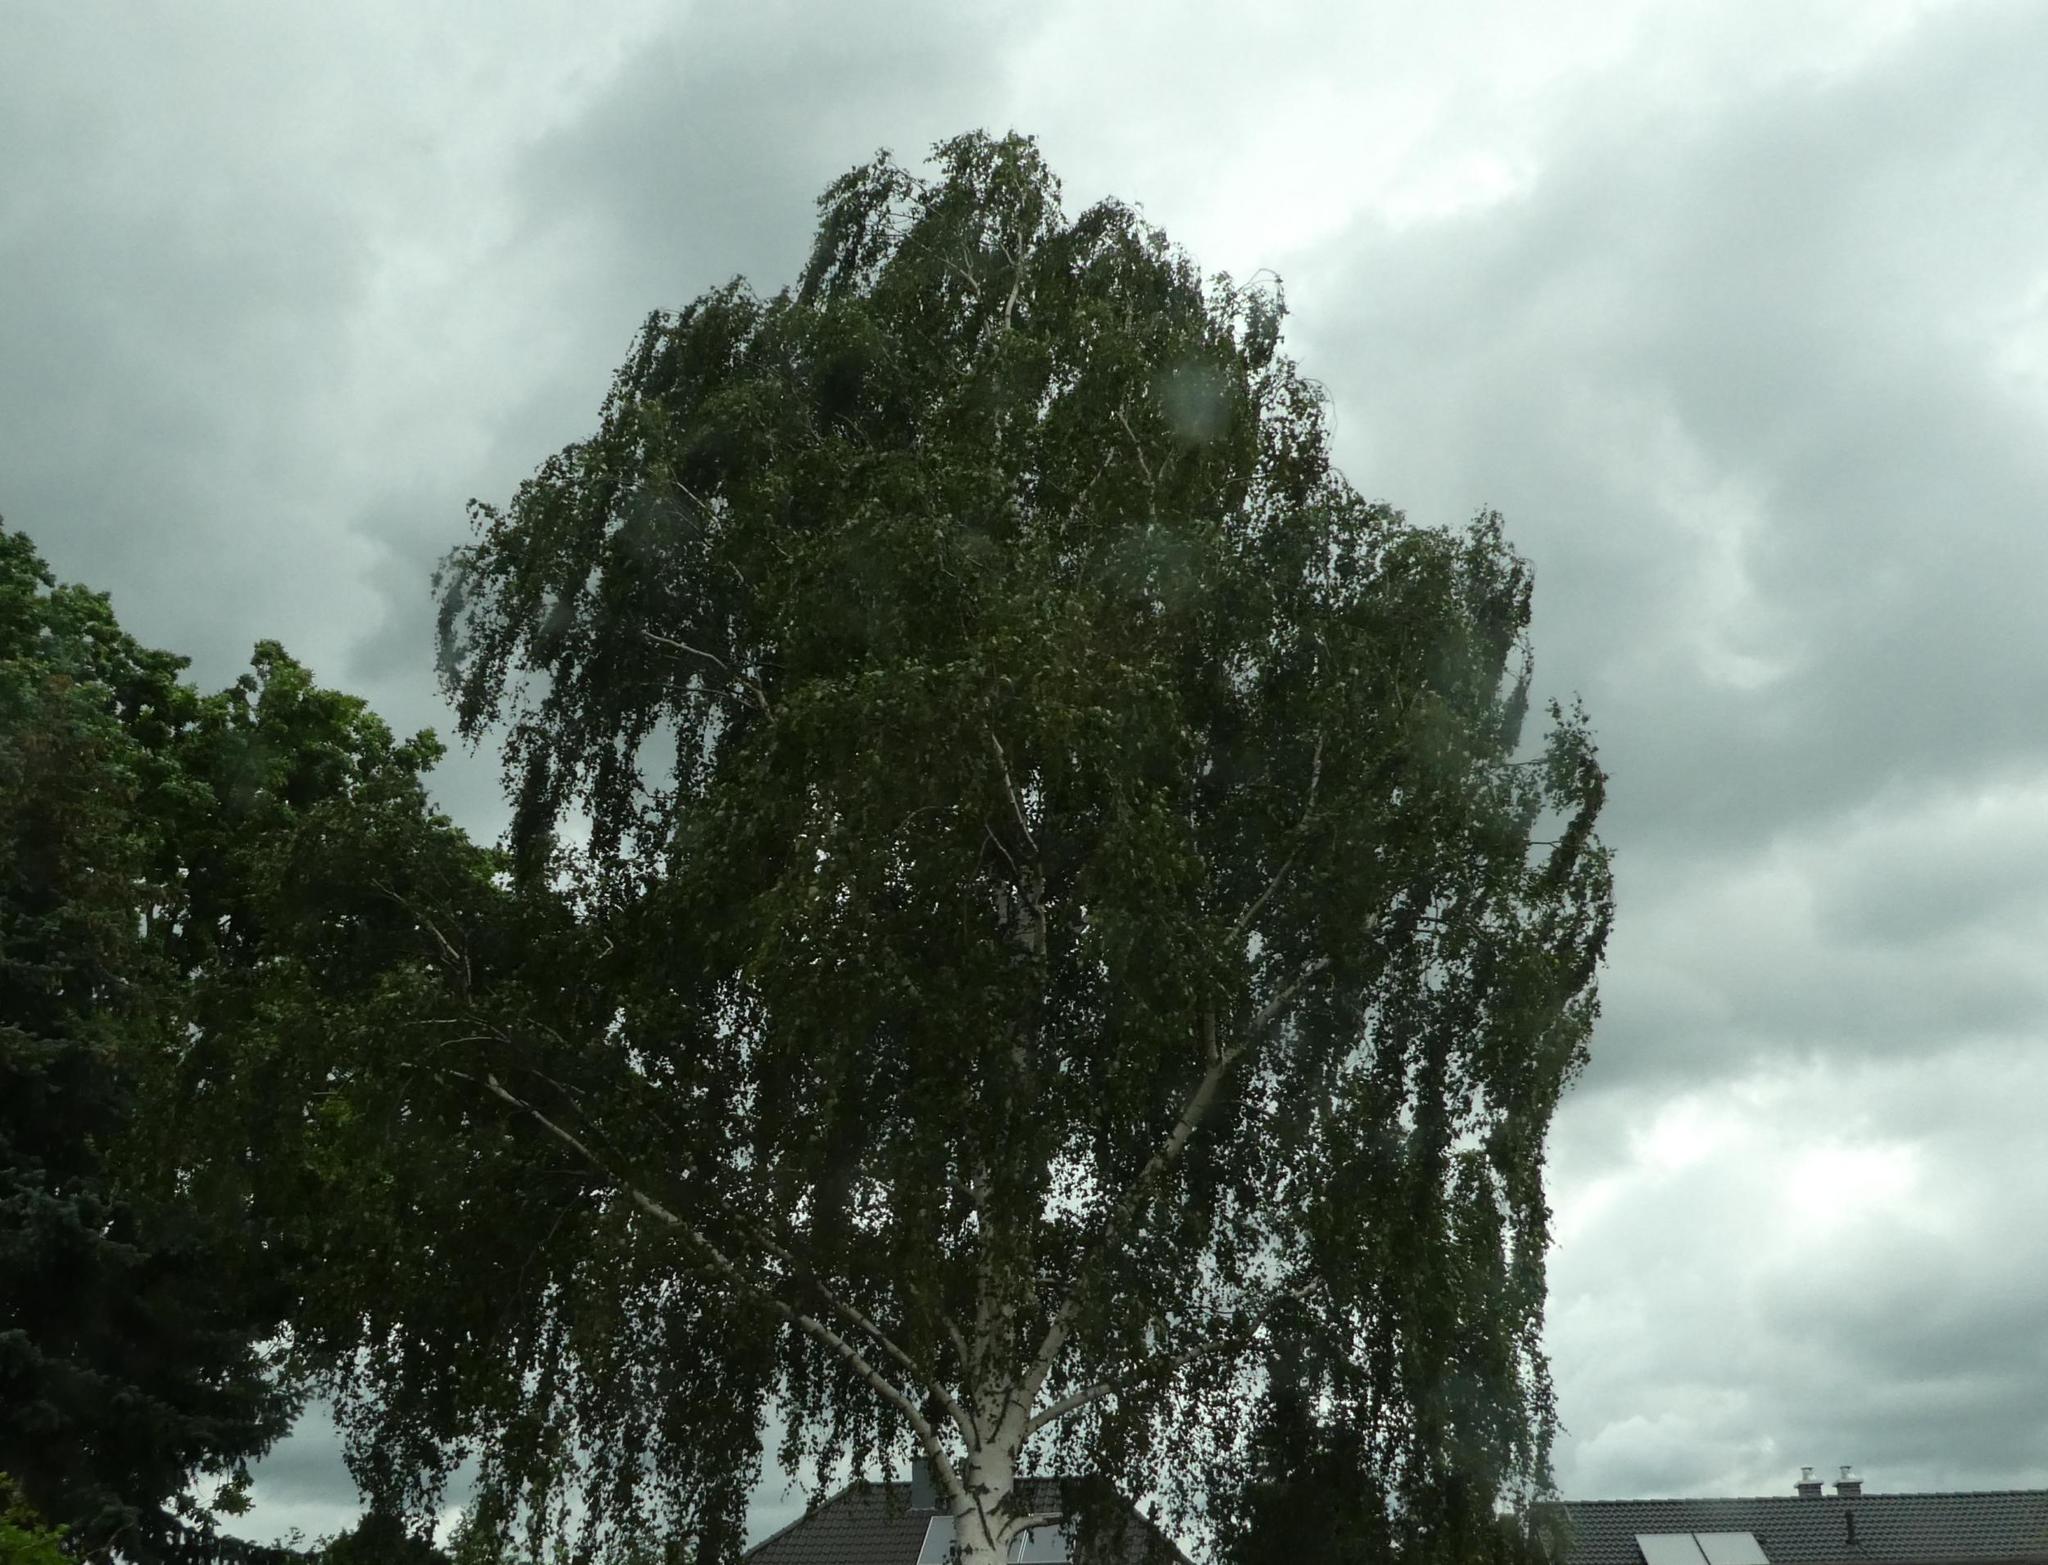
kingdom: Plantae
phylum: Tracheophyta
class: Magnoliopsida
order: Fagales
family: Betulaceae
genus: Betula
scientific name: Betula pendula
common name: Silver birch
